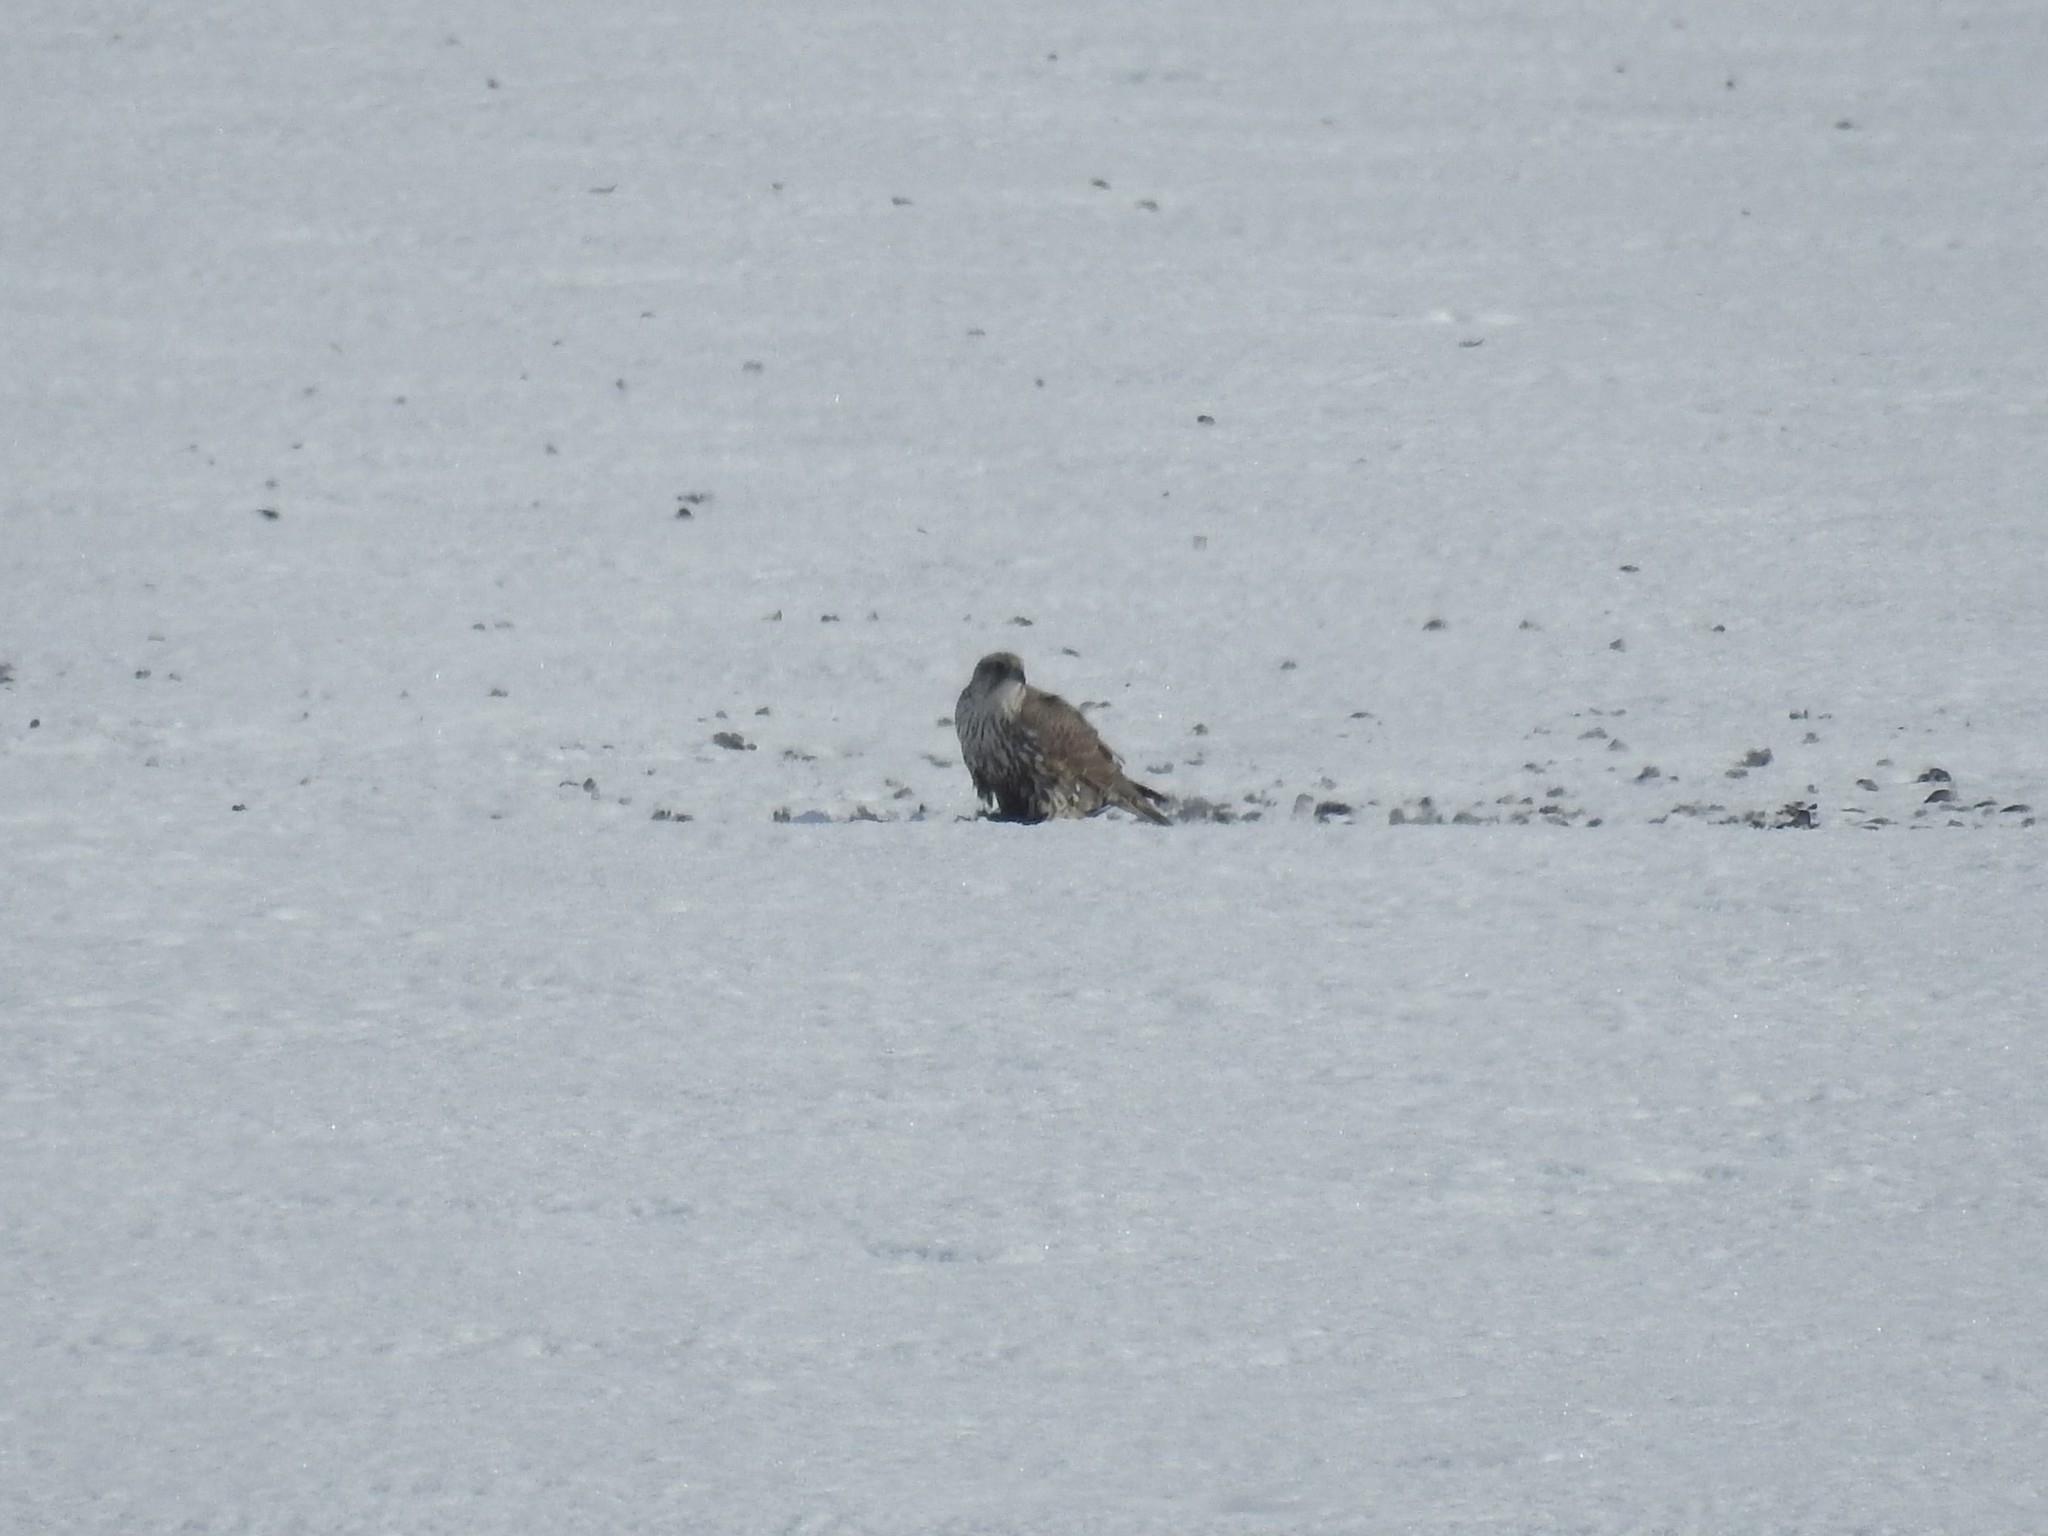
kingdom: Animalia
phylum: Chordata
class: Aves
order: Falconiformes
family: Falconidae
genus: Falco
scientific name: Falco rusticolus
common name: Gyrfalcon
